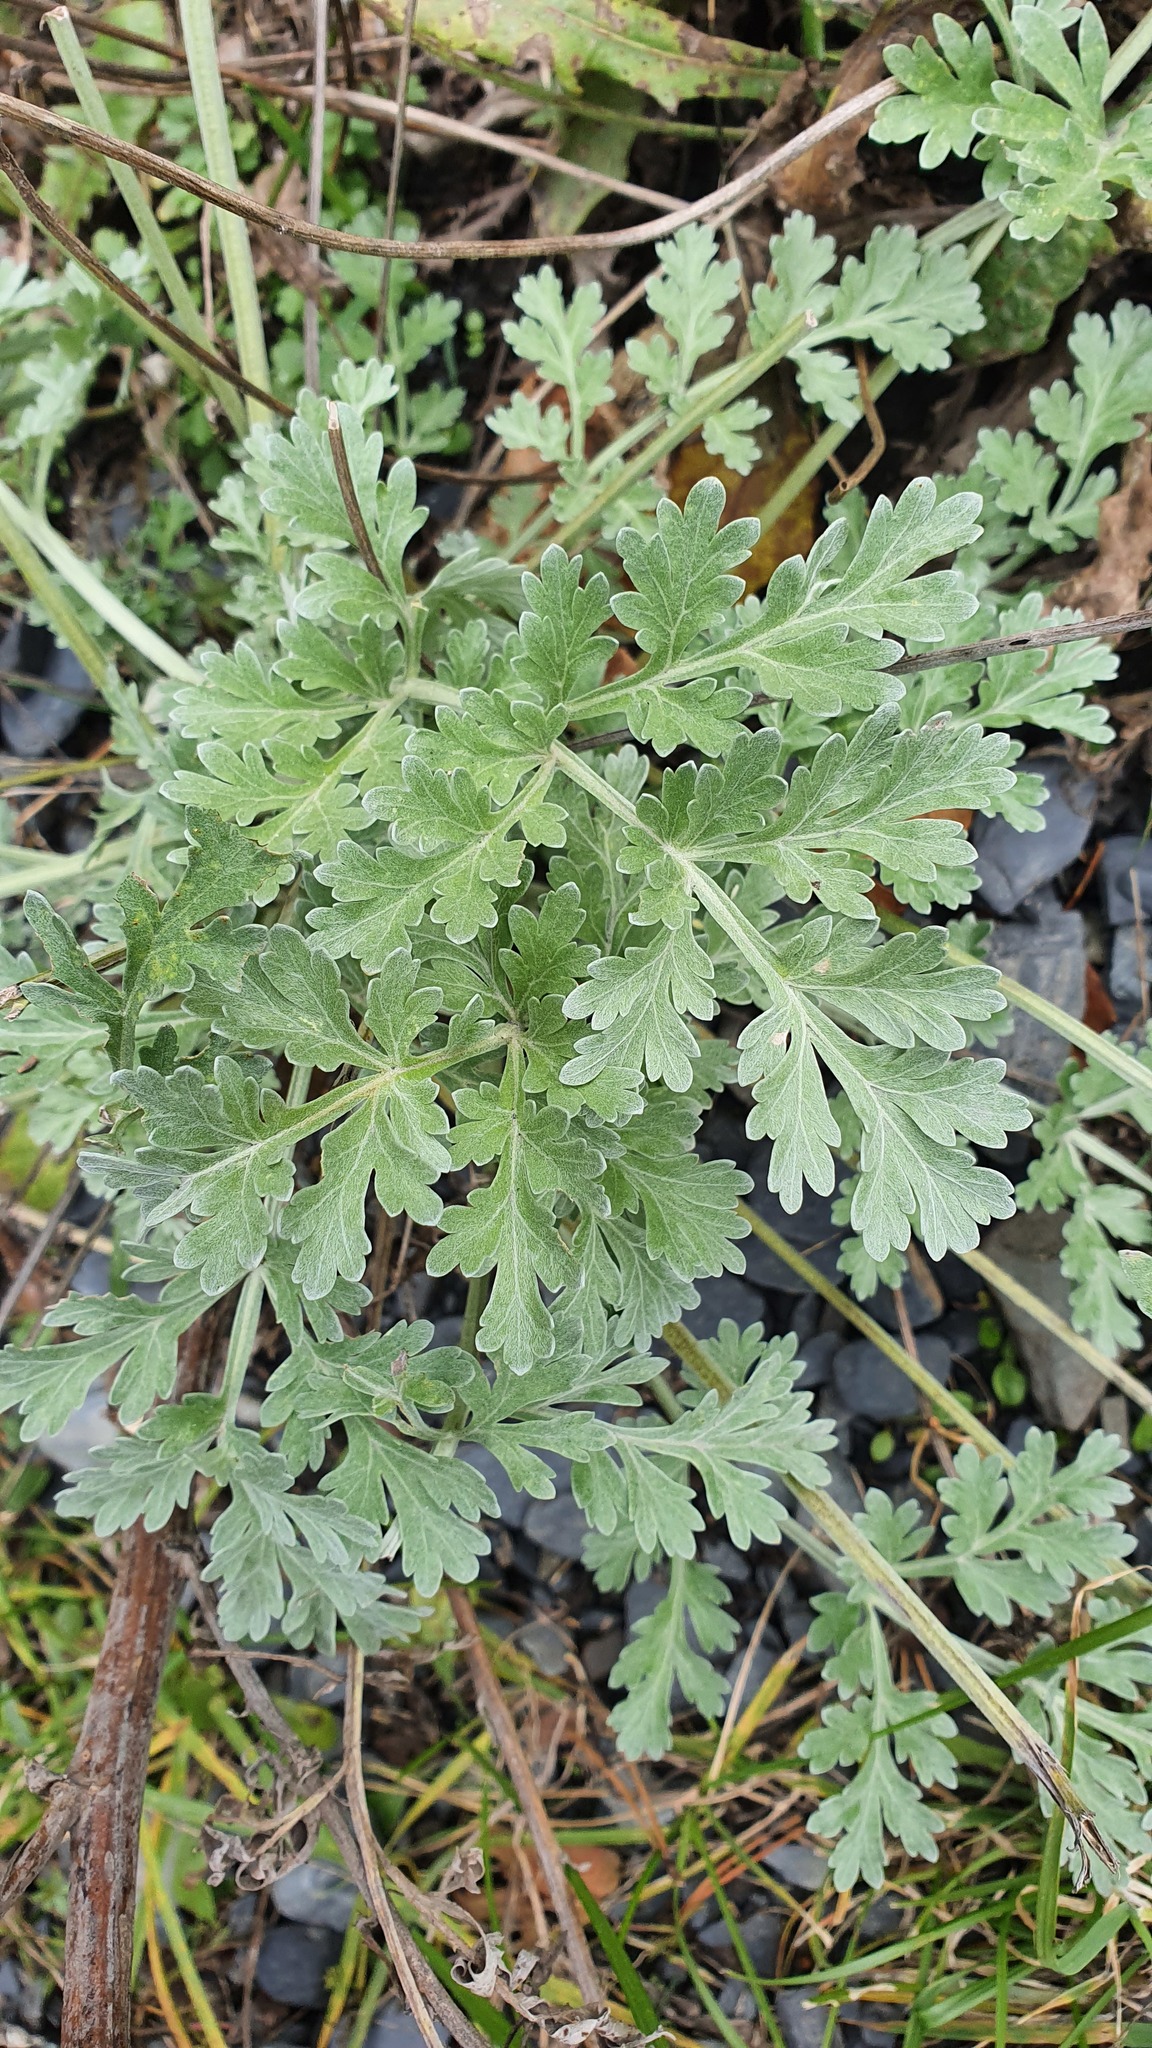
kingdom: Plantae
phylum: Tracheophyta
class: Magnoliopsida
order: Asterales
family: Asteraceae
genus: Artemisia
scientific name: Artemisia absinthium
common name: Wormwood
